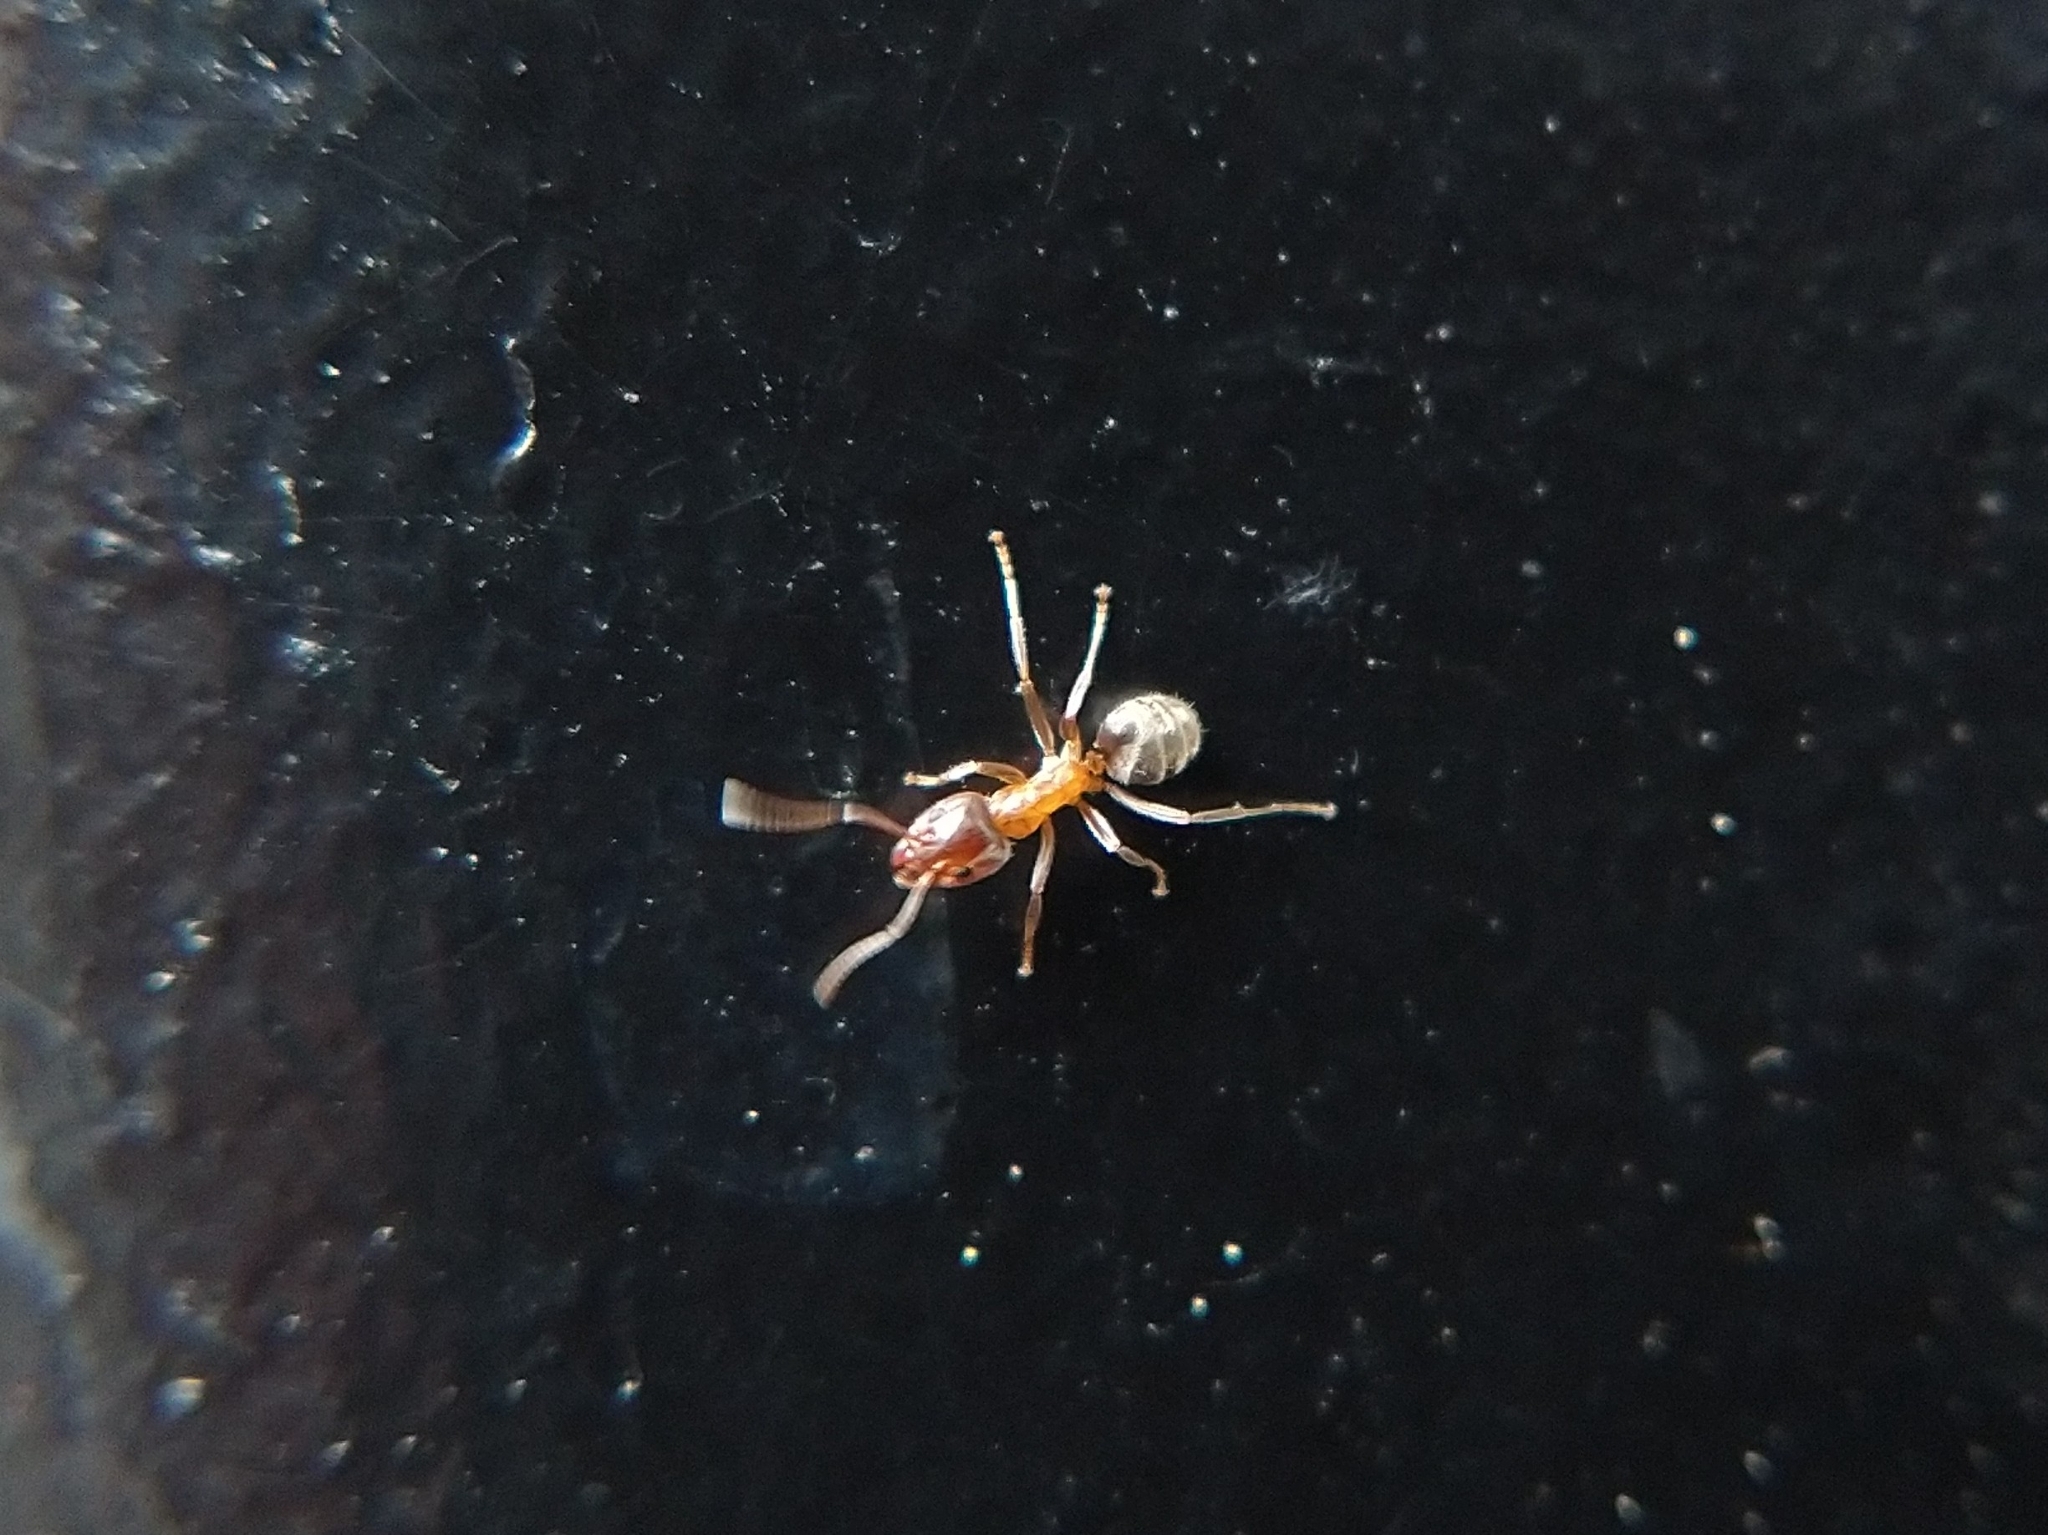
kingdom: Animalia
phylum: Arthropoda
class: Insecta
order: Hymenoptera
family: Formicidae
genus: Liometopum
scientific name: Liometopum occidentale
